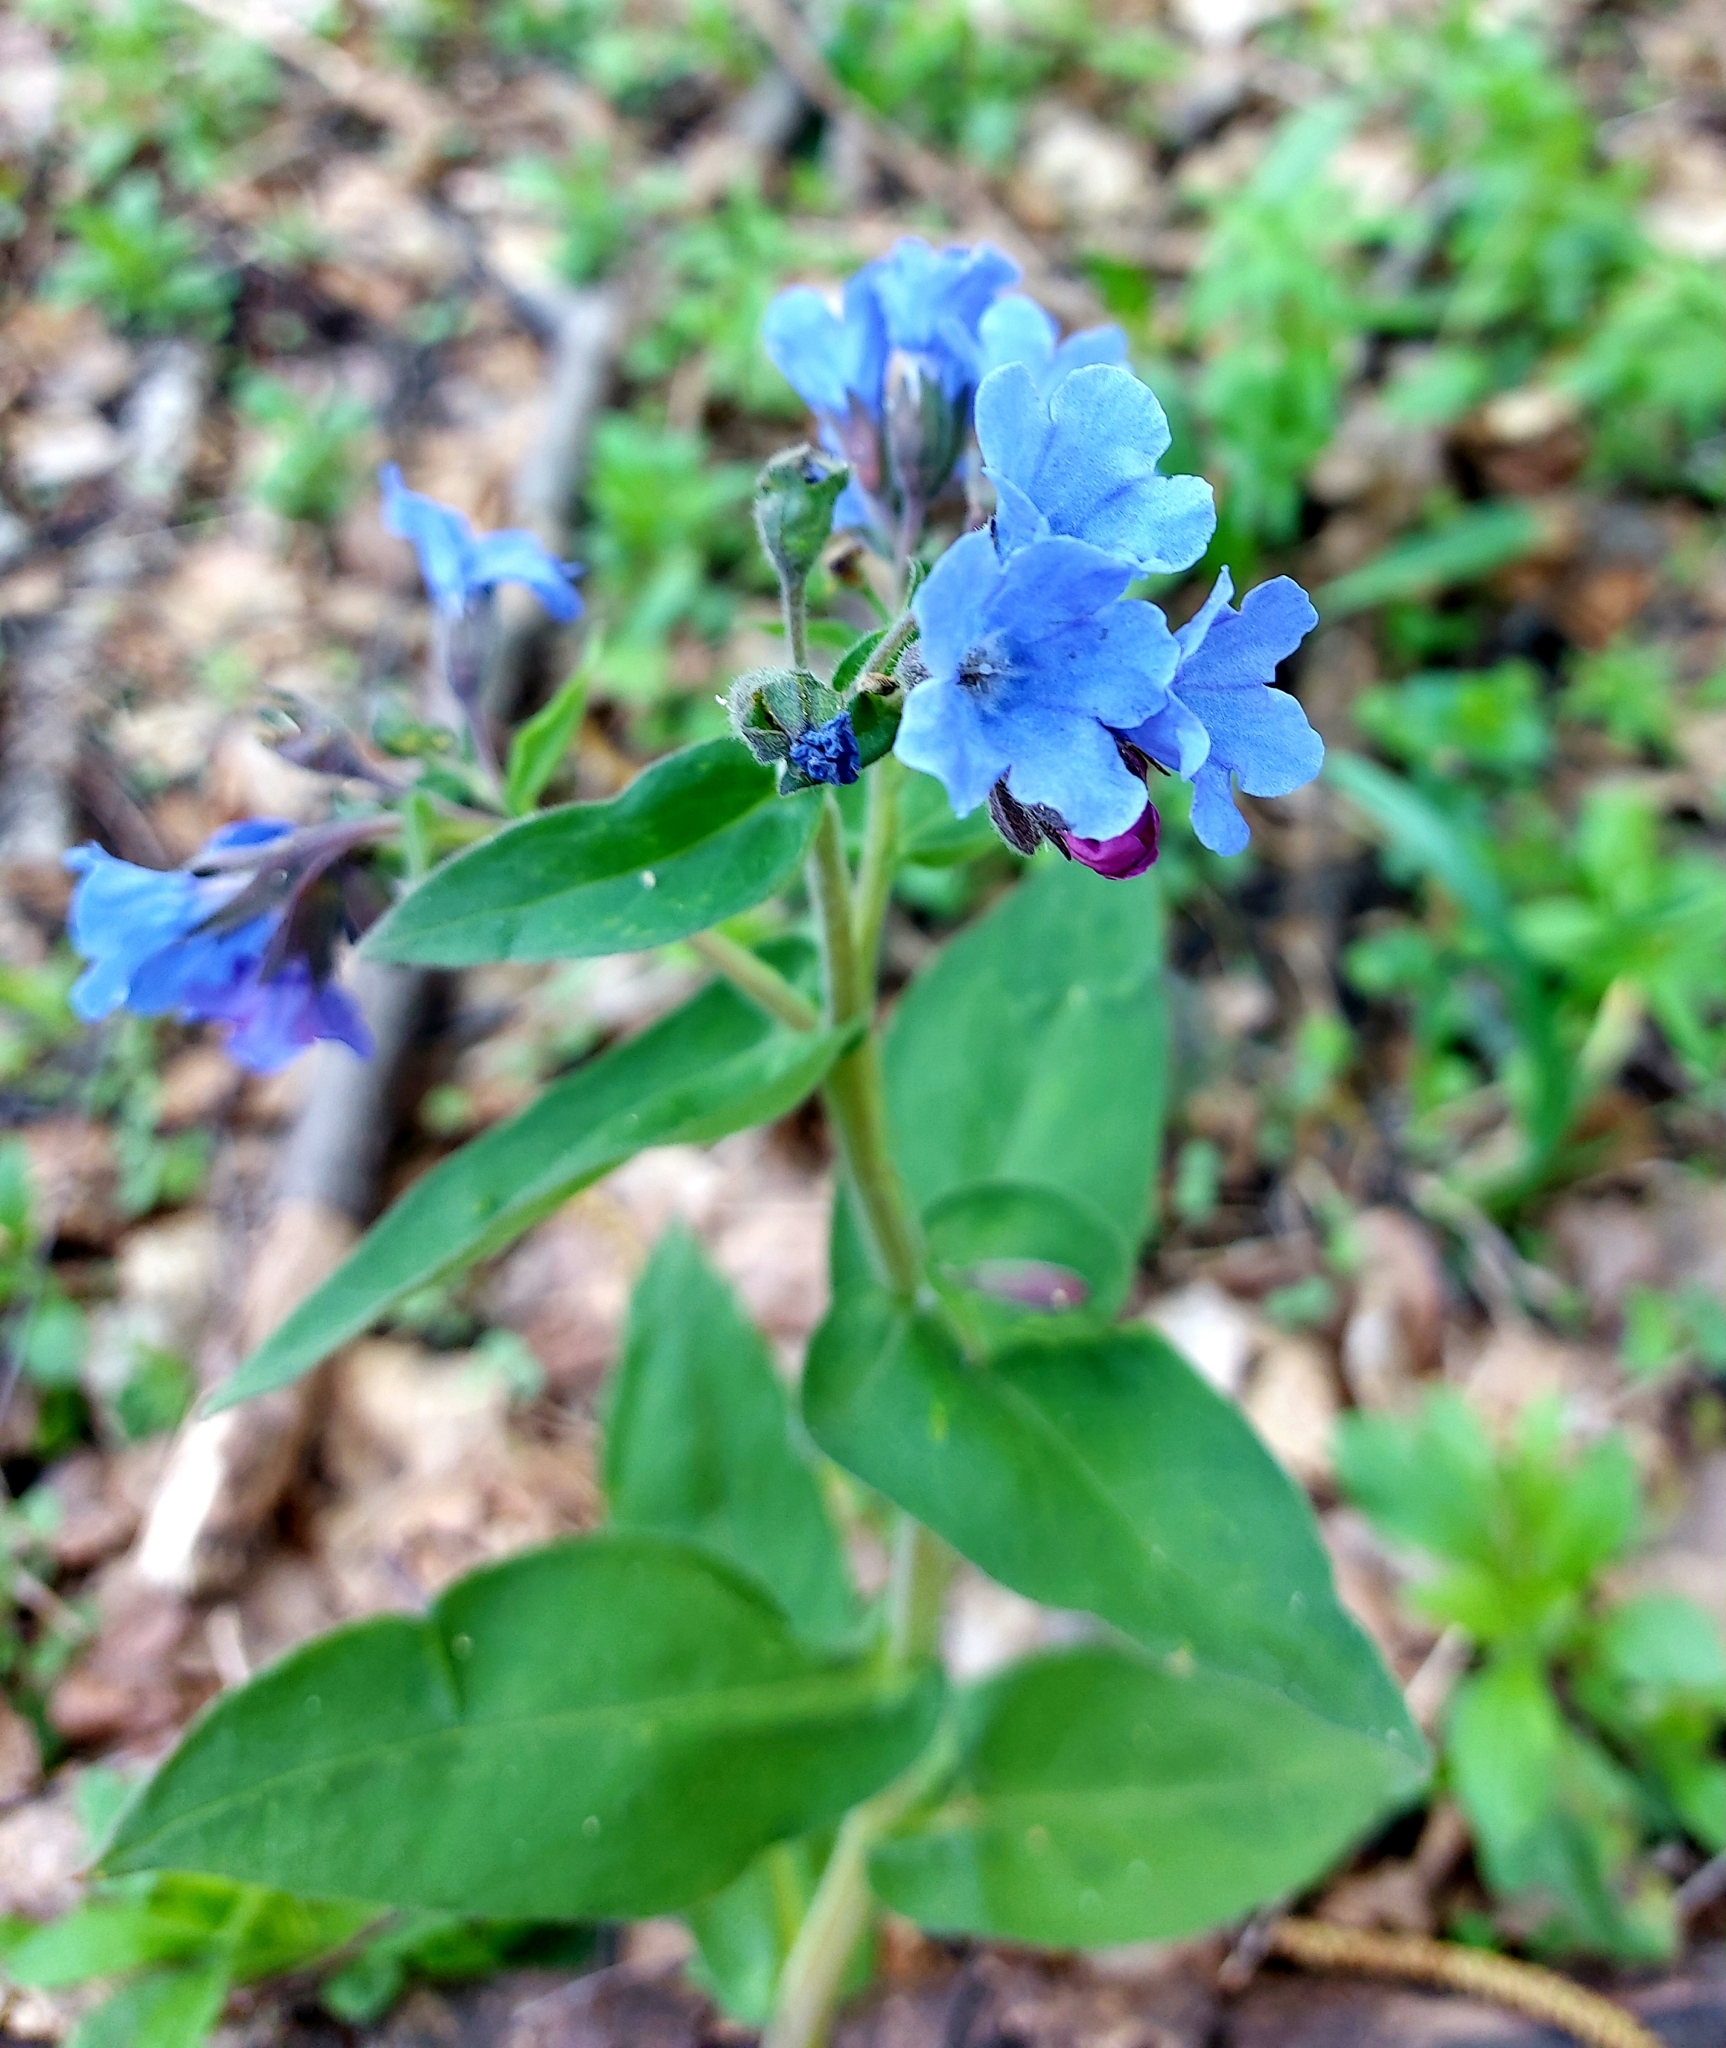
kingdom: Plantae
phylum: Tracheophyta
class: Magnoliopsida
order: Boraginales
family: Boraginaceae
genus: Pulmonaria
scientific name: Pulmonaria mollis
